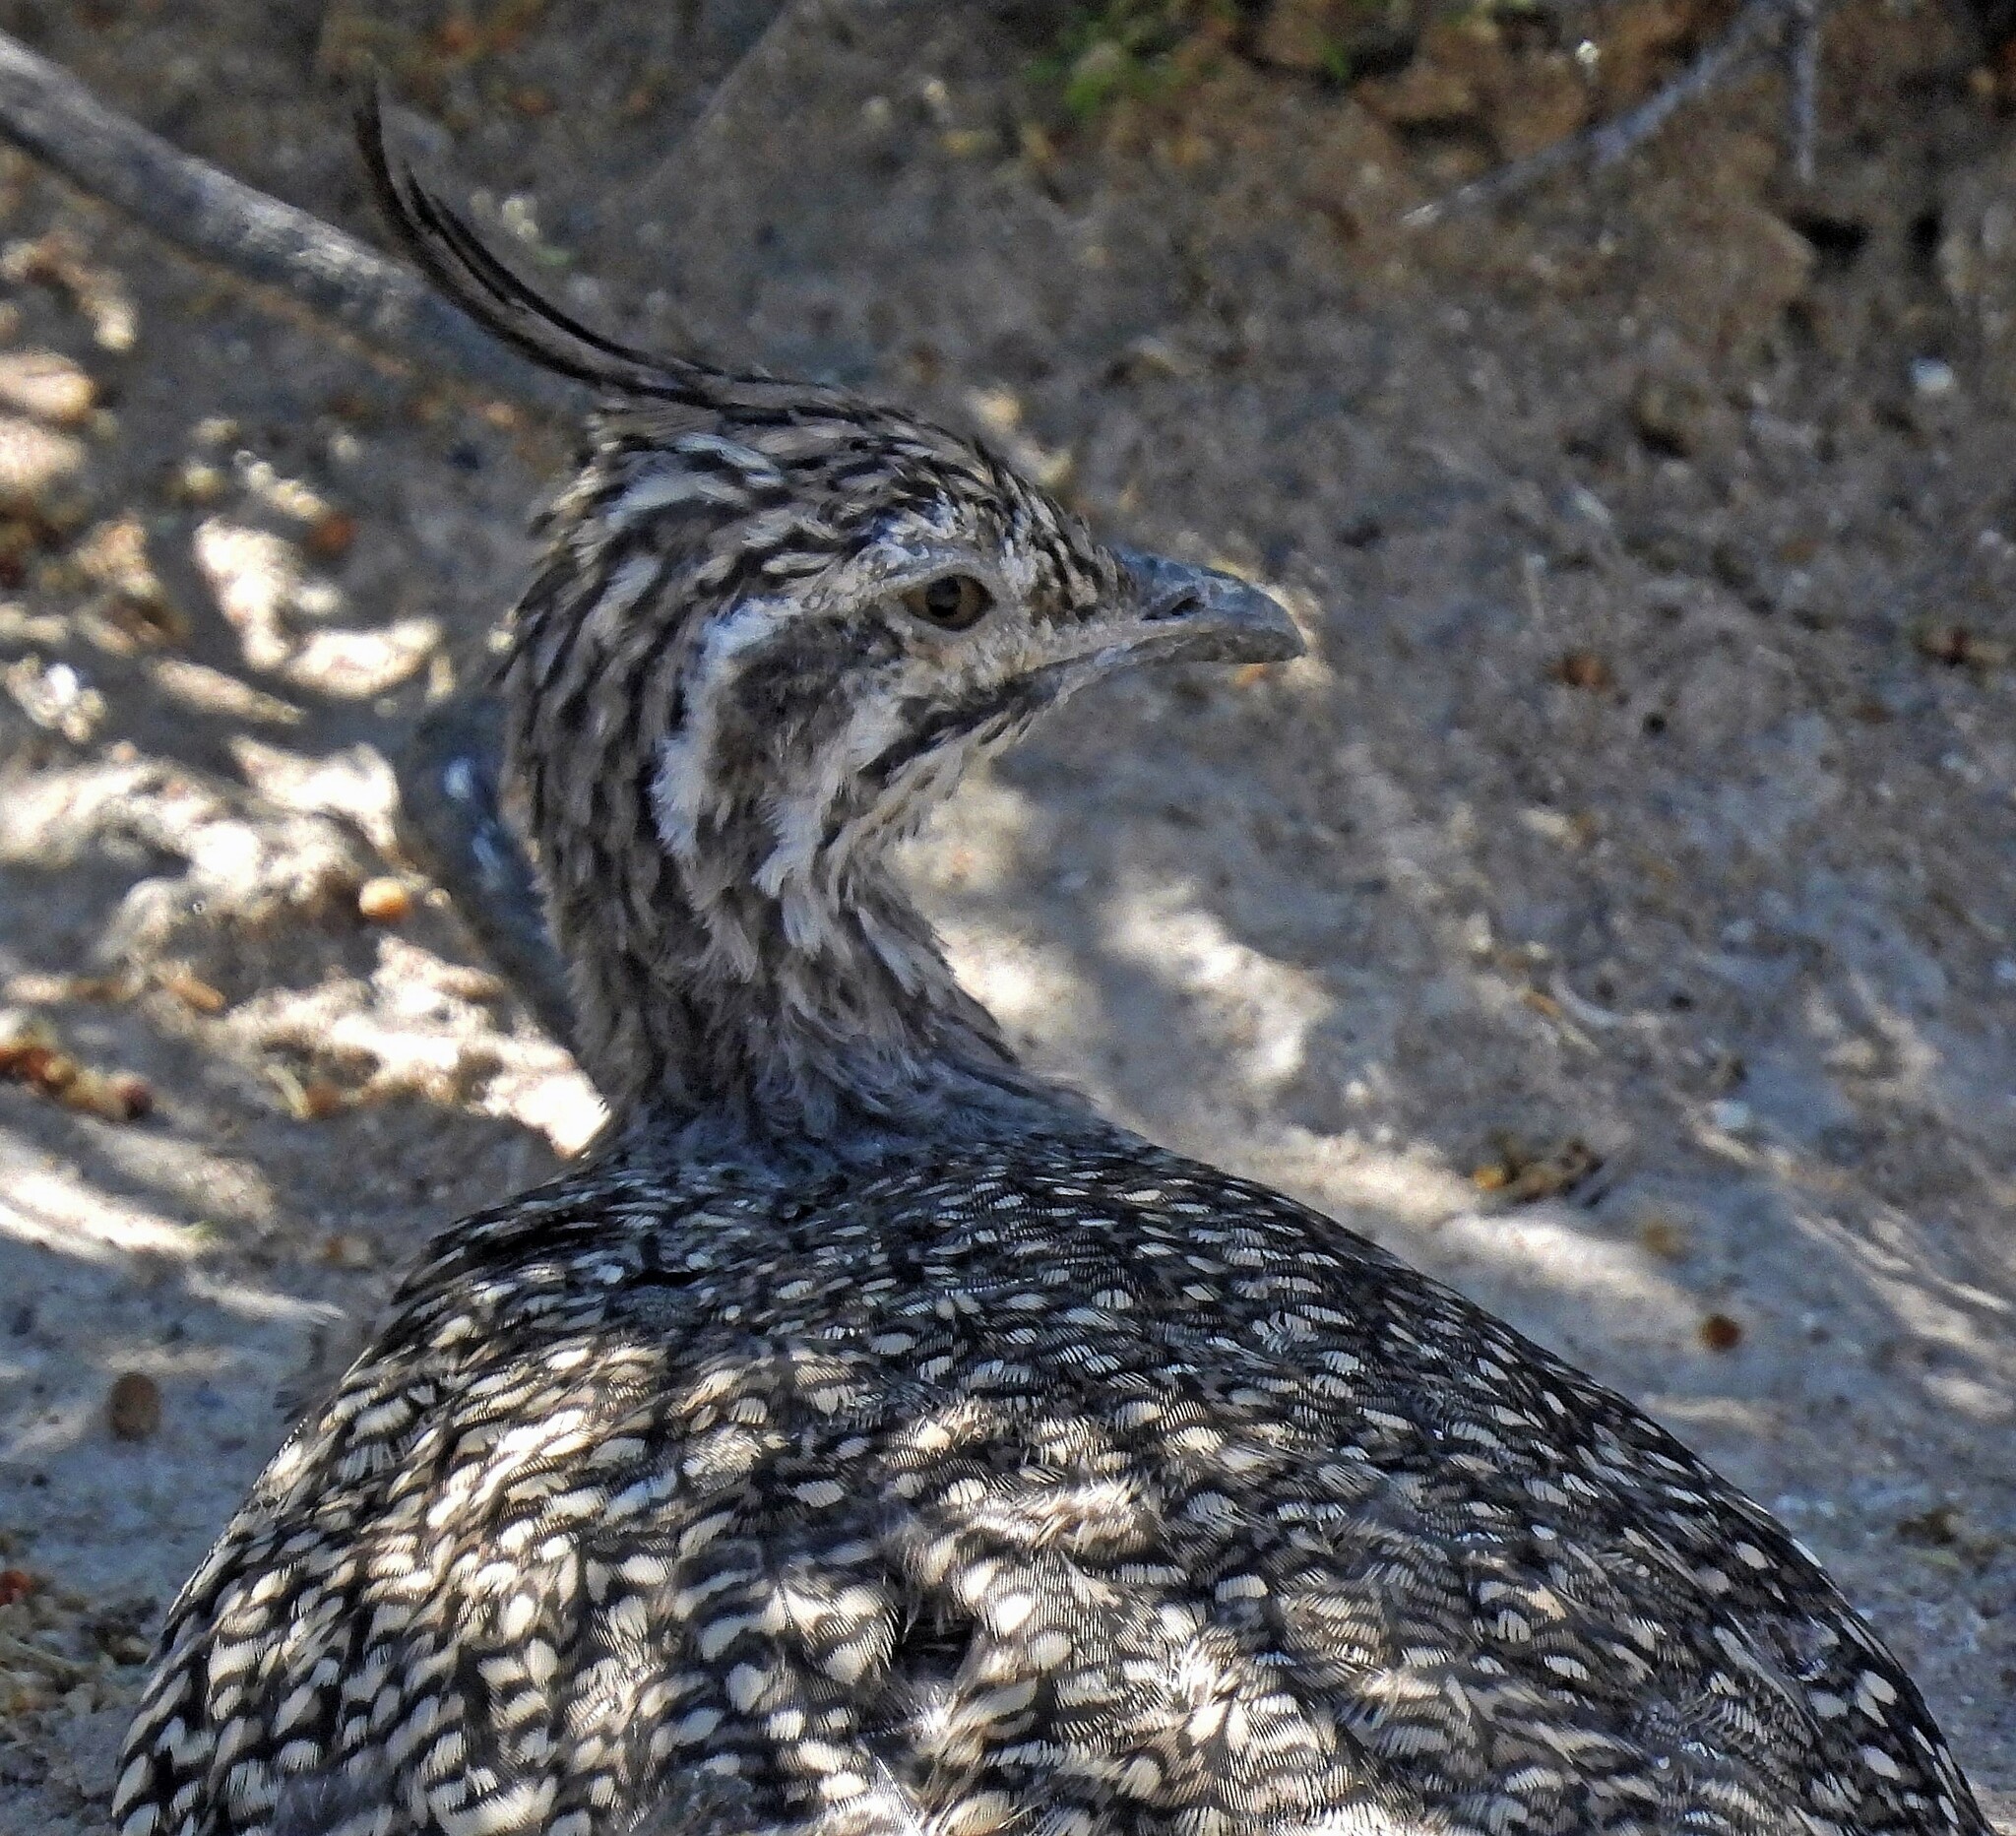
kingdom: Animalia
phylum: Chordata
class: Aves
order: Tinamiformes
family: Tinamidae
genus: Eudromia
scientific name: Eudromia elegans
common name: Elegant crested tinamou
